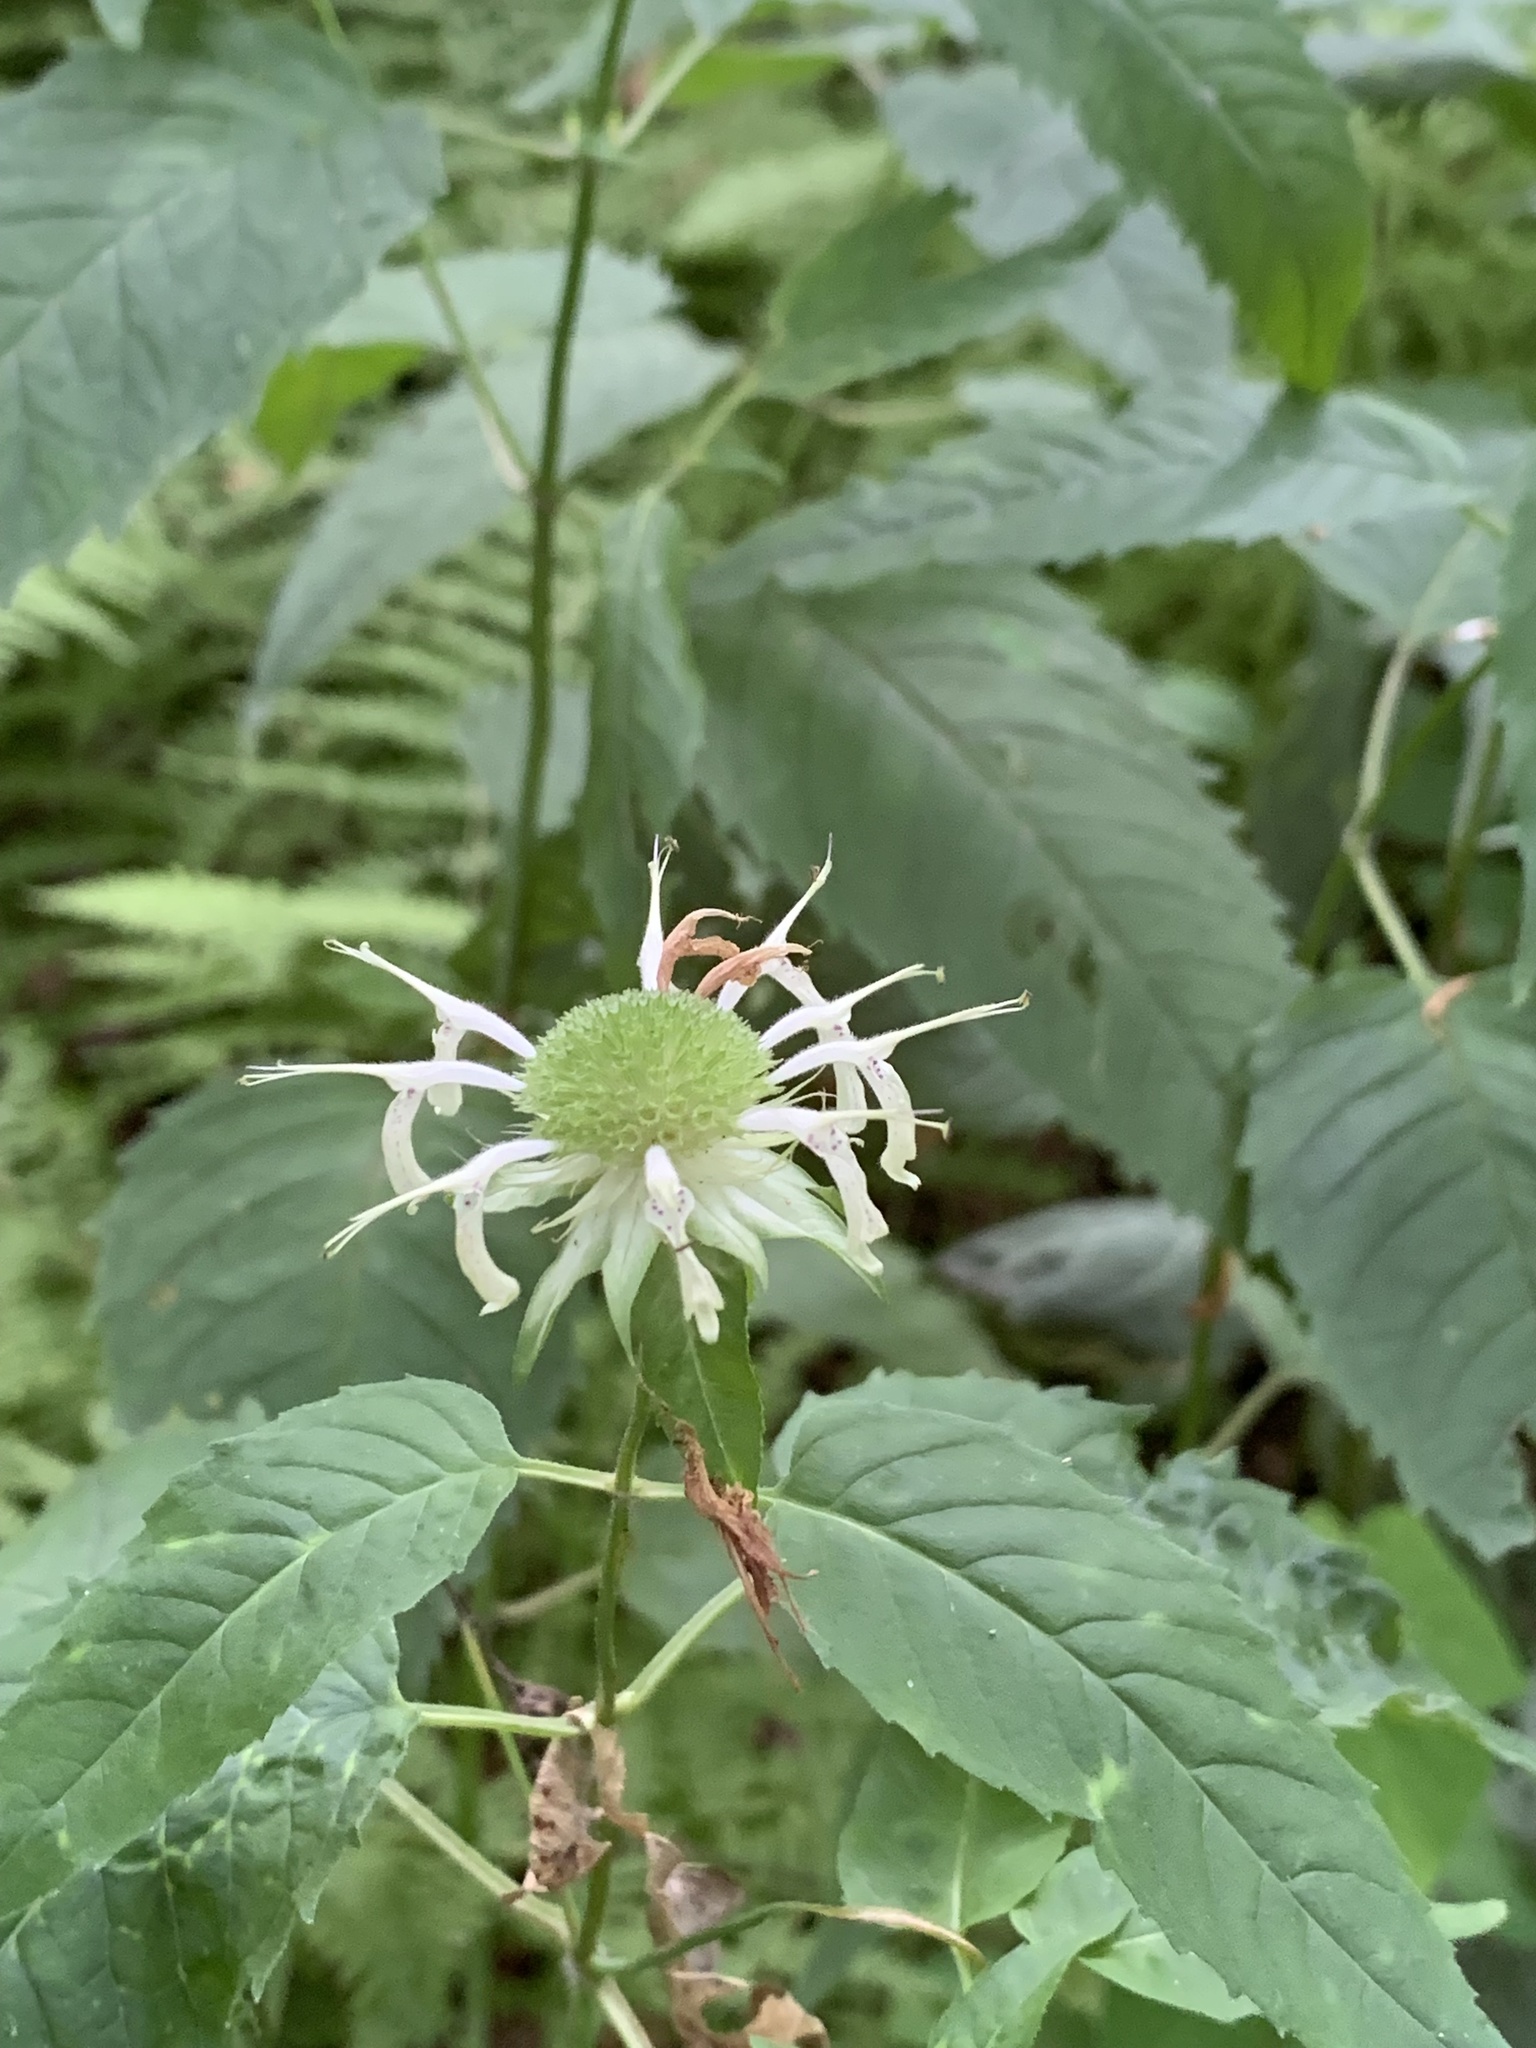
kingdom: Plantae
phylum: Tracheophyta
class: Magnoliopsida
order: Lamiales
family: Lamiaceae
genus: Monarda
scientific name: Monarda clinopodia
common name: Basil beebalm
